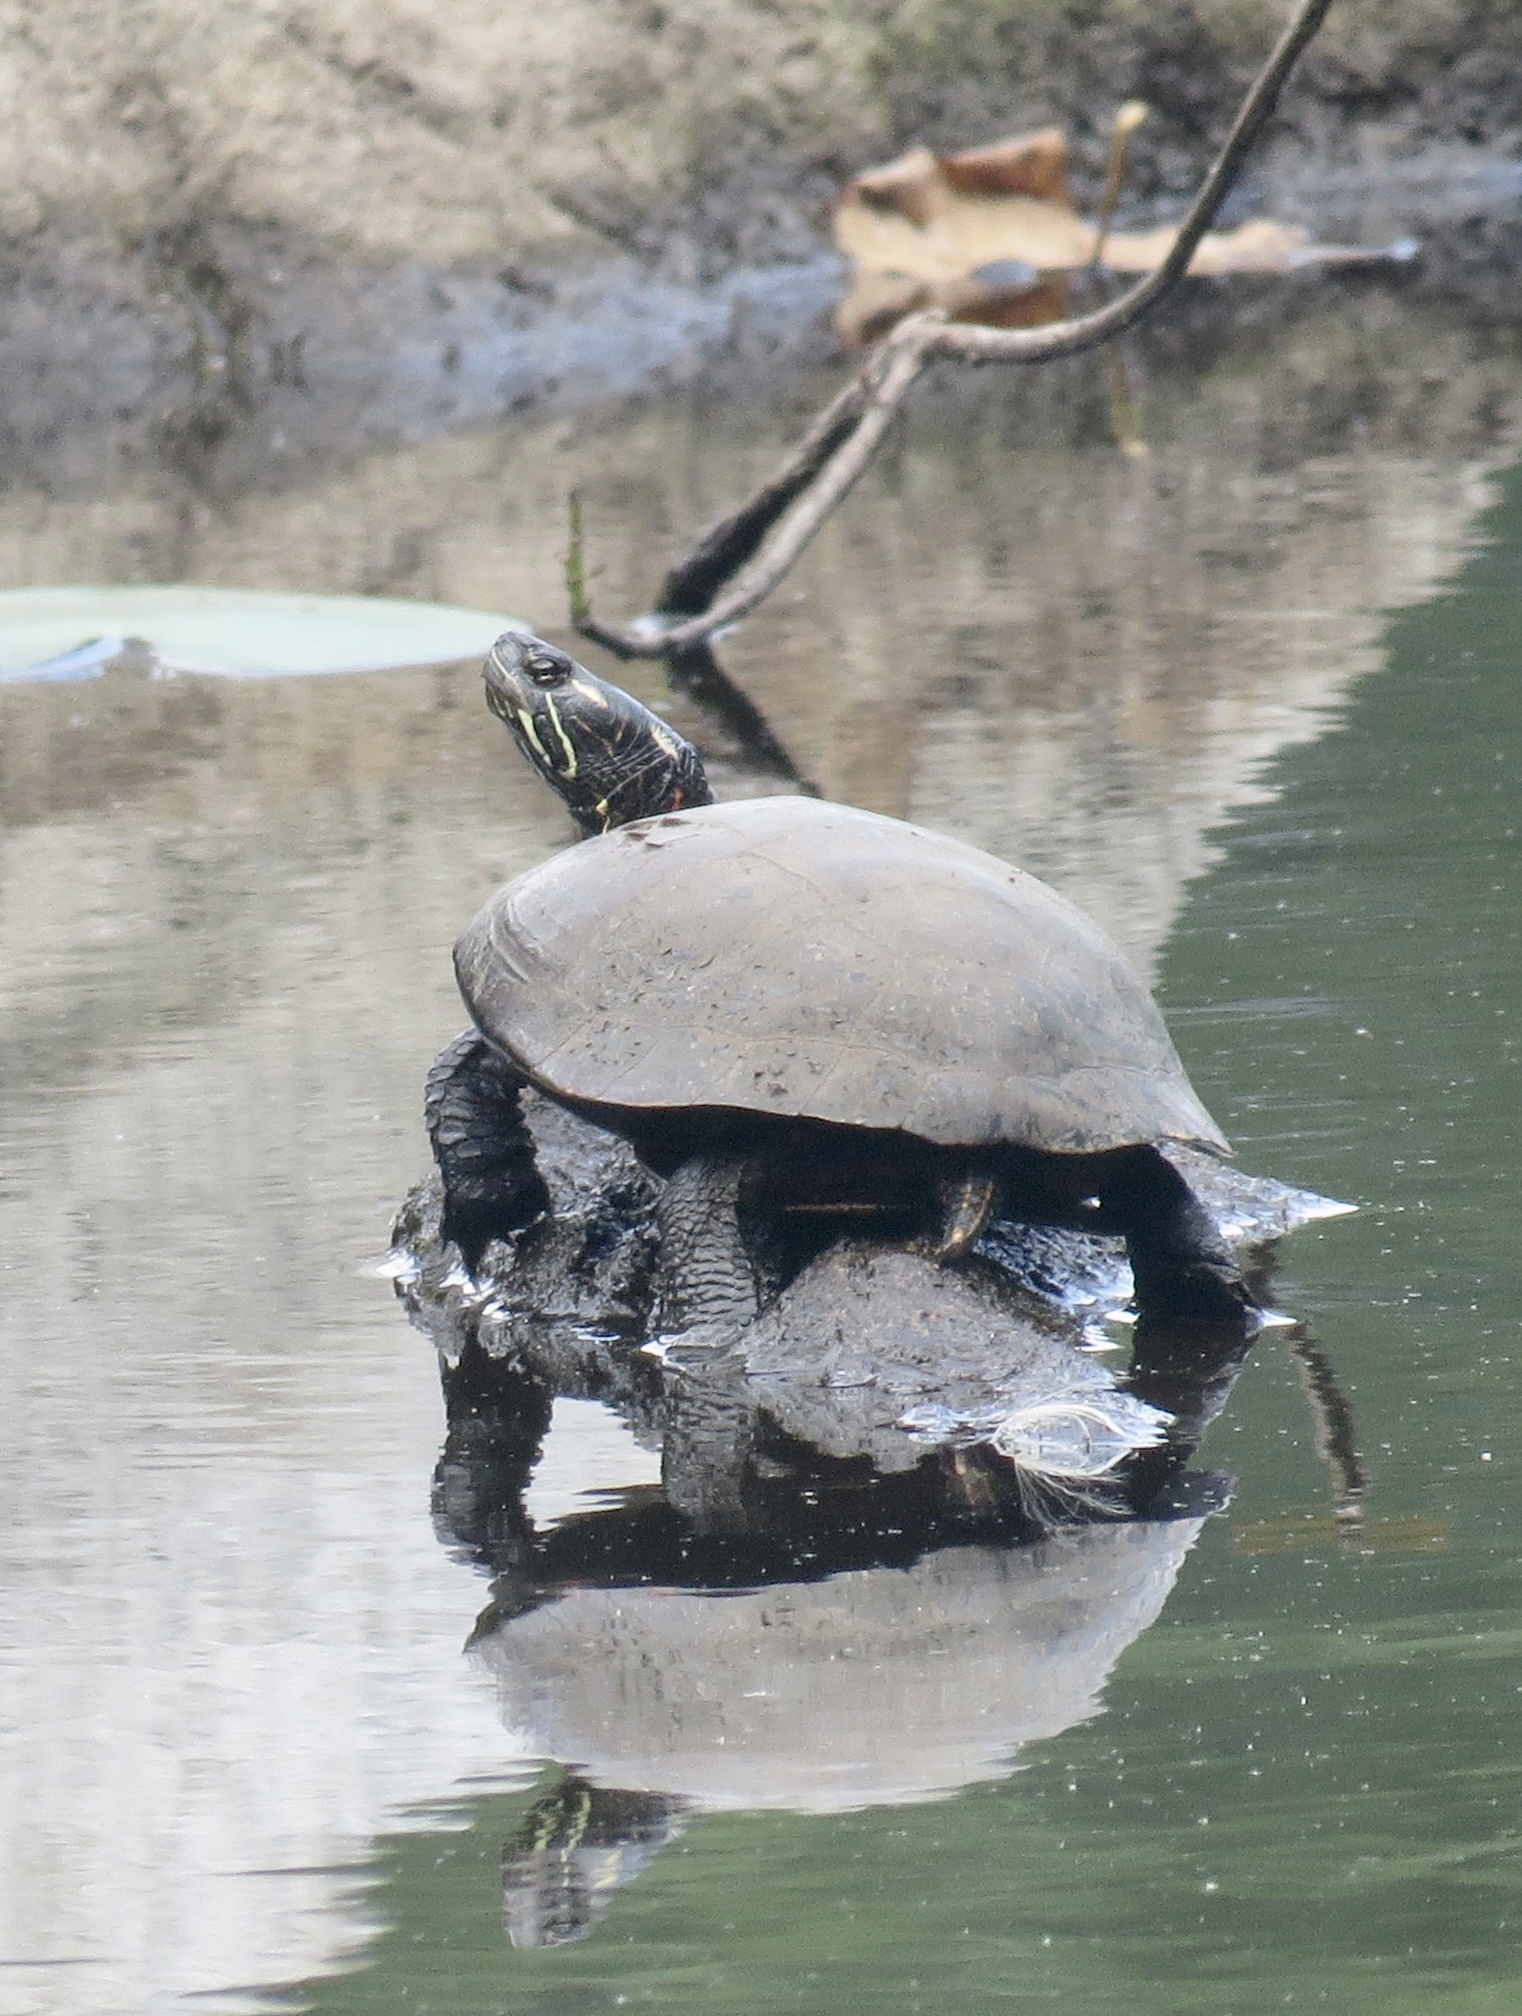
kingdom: Animalia
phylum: Chordata
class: Testudines
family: Emydidae
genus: Chrysemys
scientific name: Chrysemys picta
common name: Painted turtle
